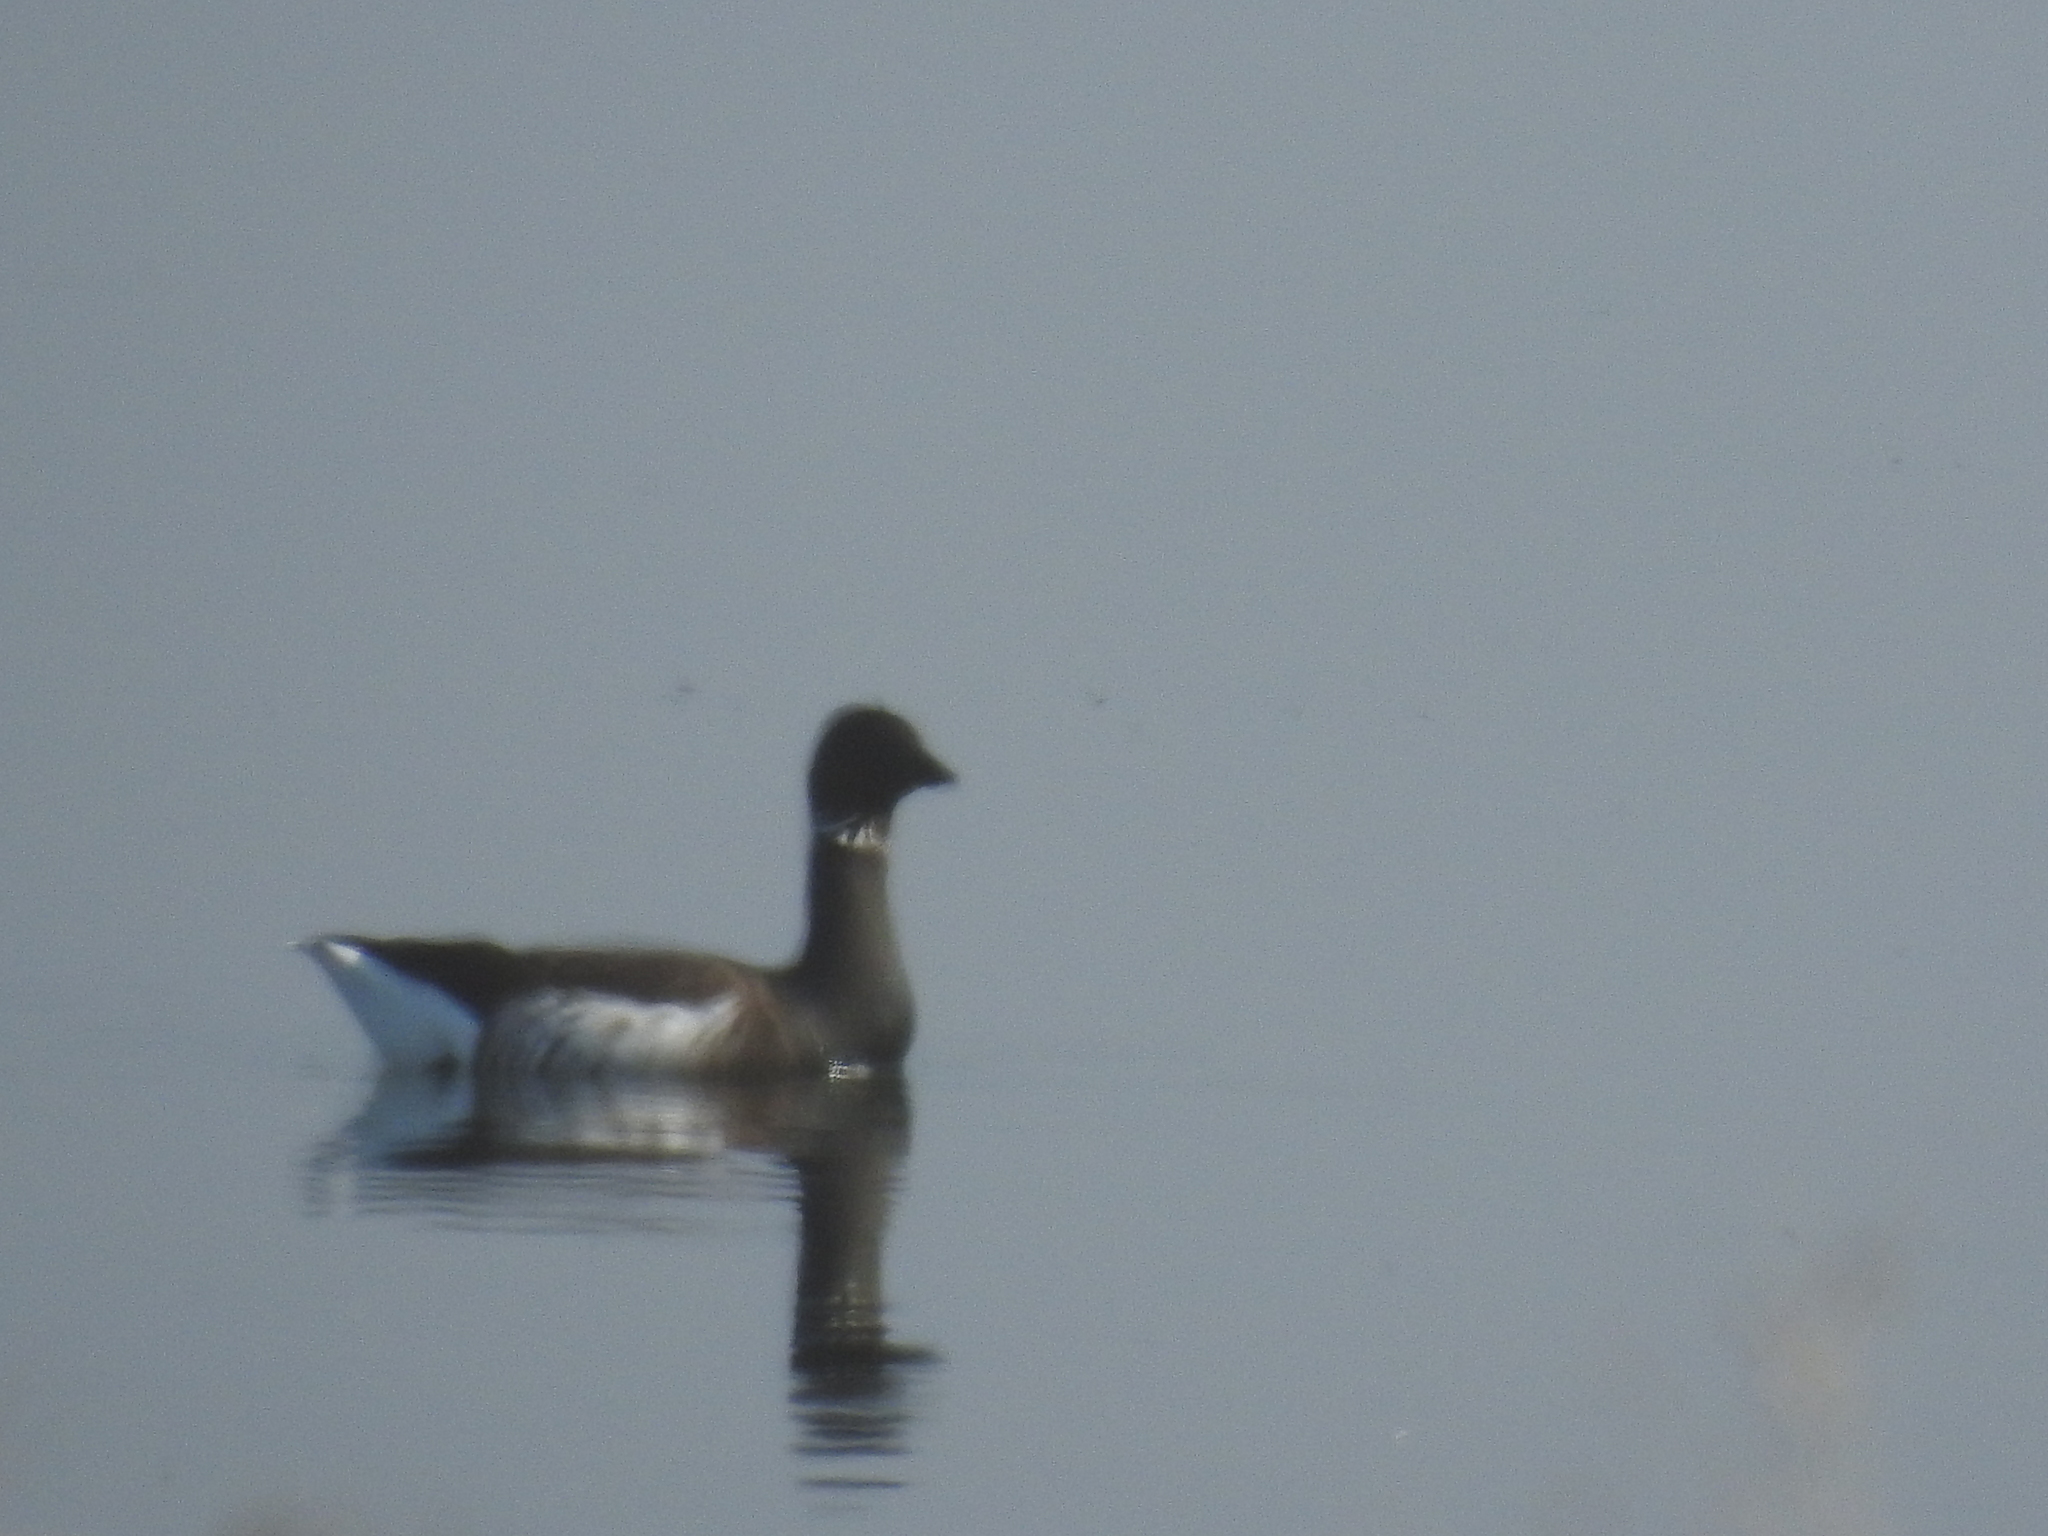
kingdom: Animalia
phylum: Chordata
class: Aves
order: Anseriformes
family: Anatidae
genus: Branta
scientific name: Branta bernicla
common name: Brant goose
